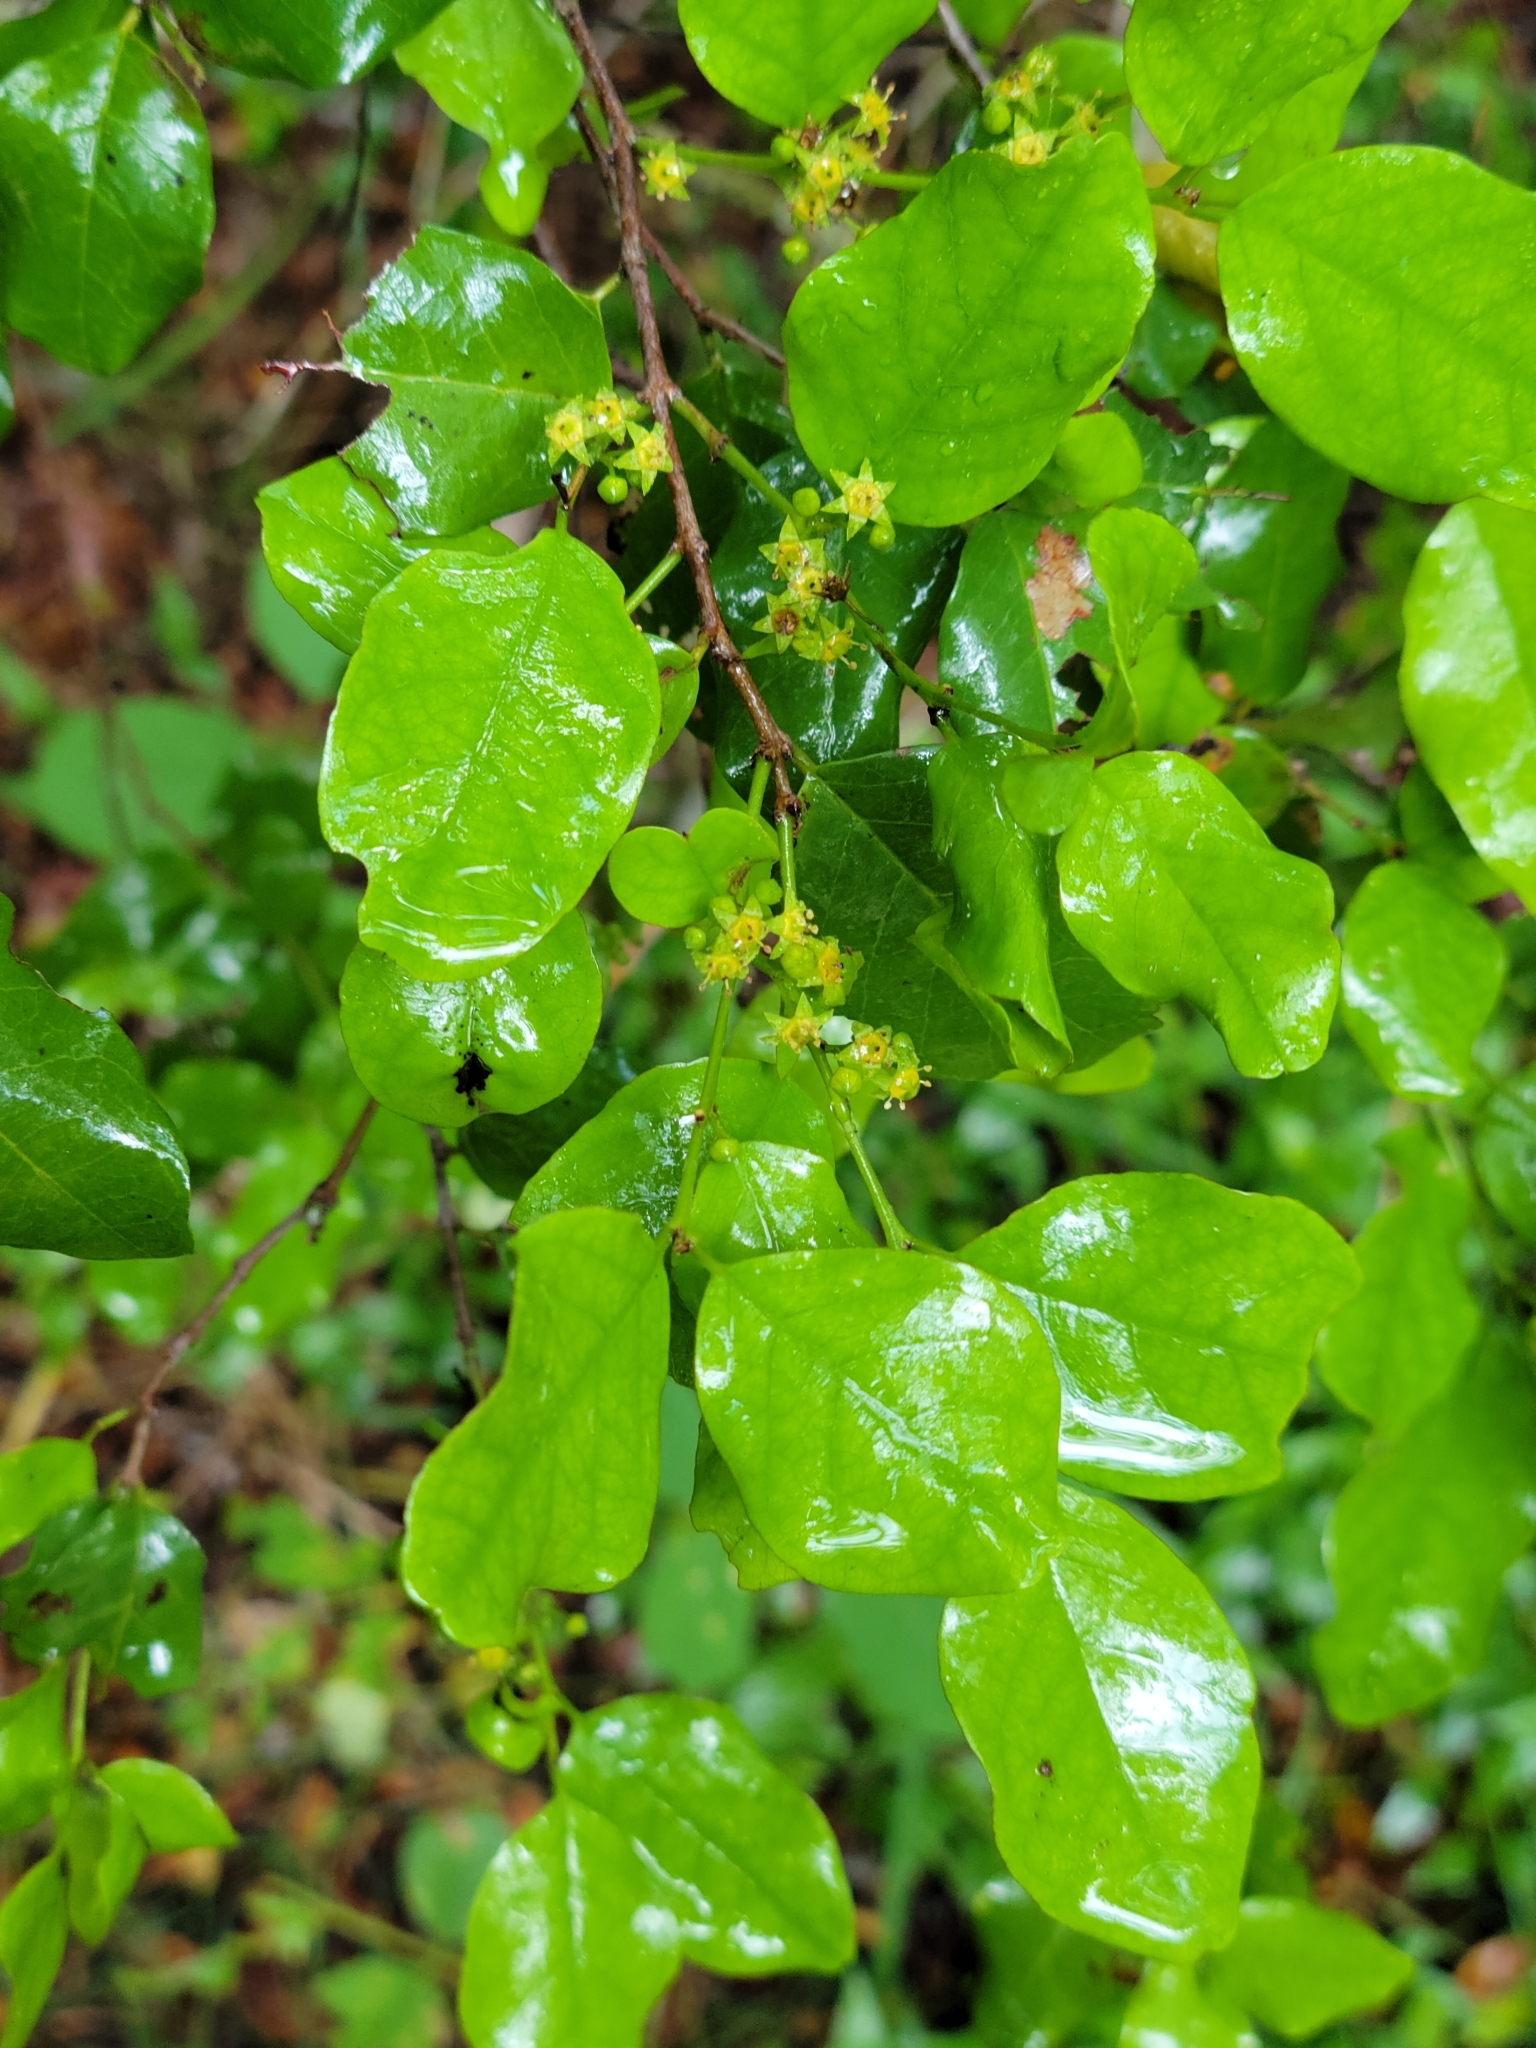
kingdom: Plantae
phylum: Tracheophyta
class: Magnoliopsida
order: Rosales
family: Rhamnaceae
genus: Krugiodendron
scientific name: Krugiodendron ferreum
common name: Iron wood
